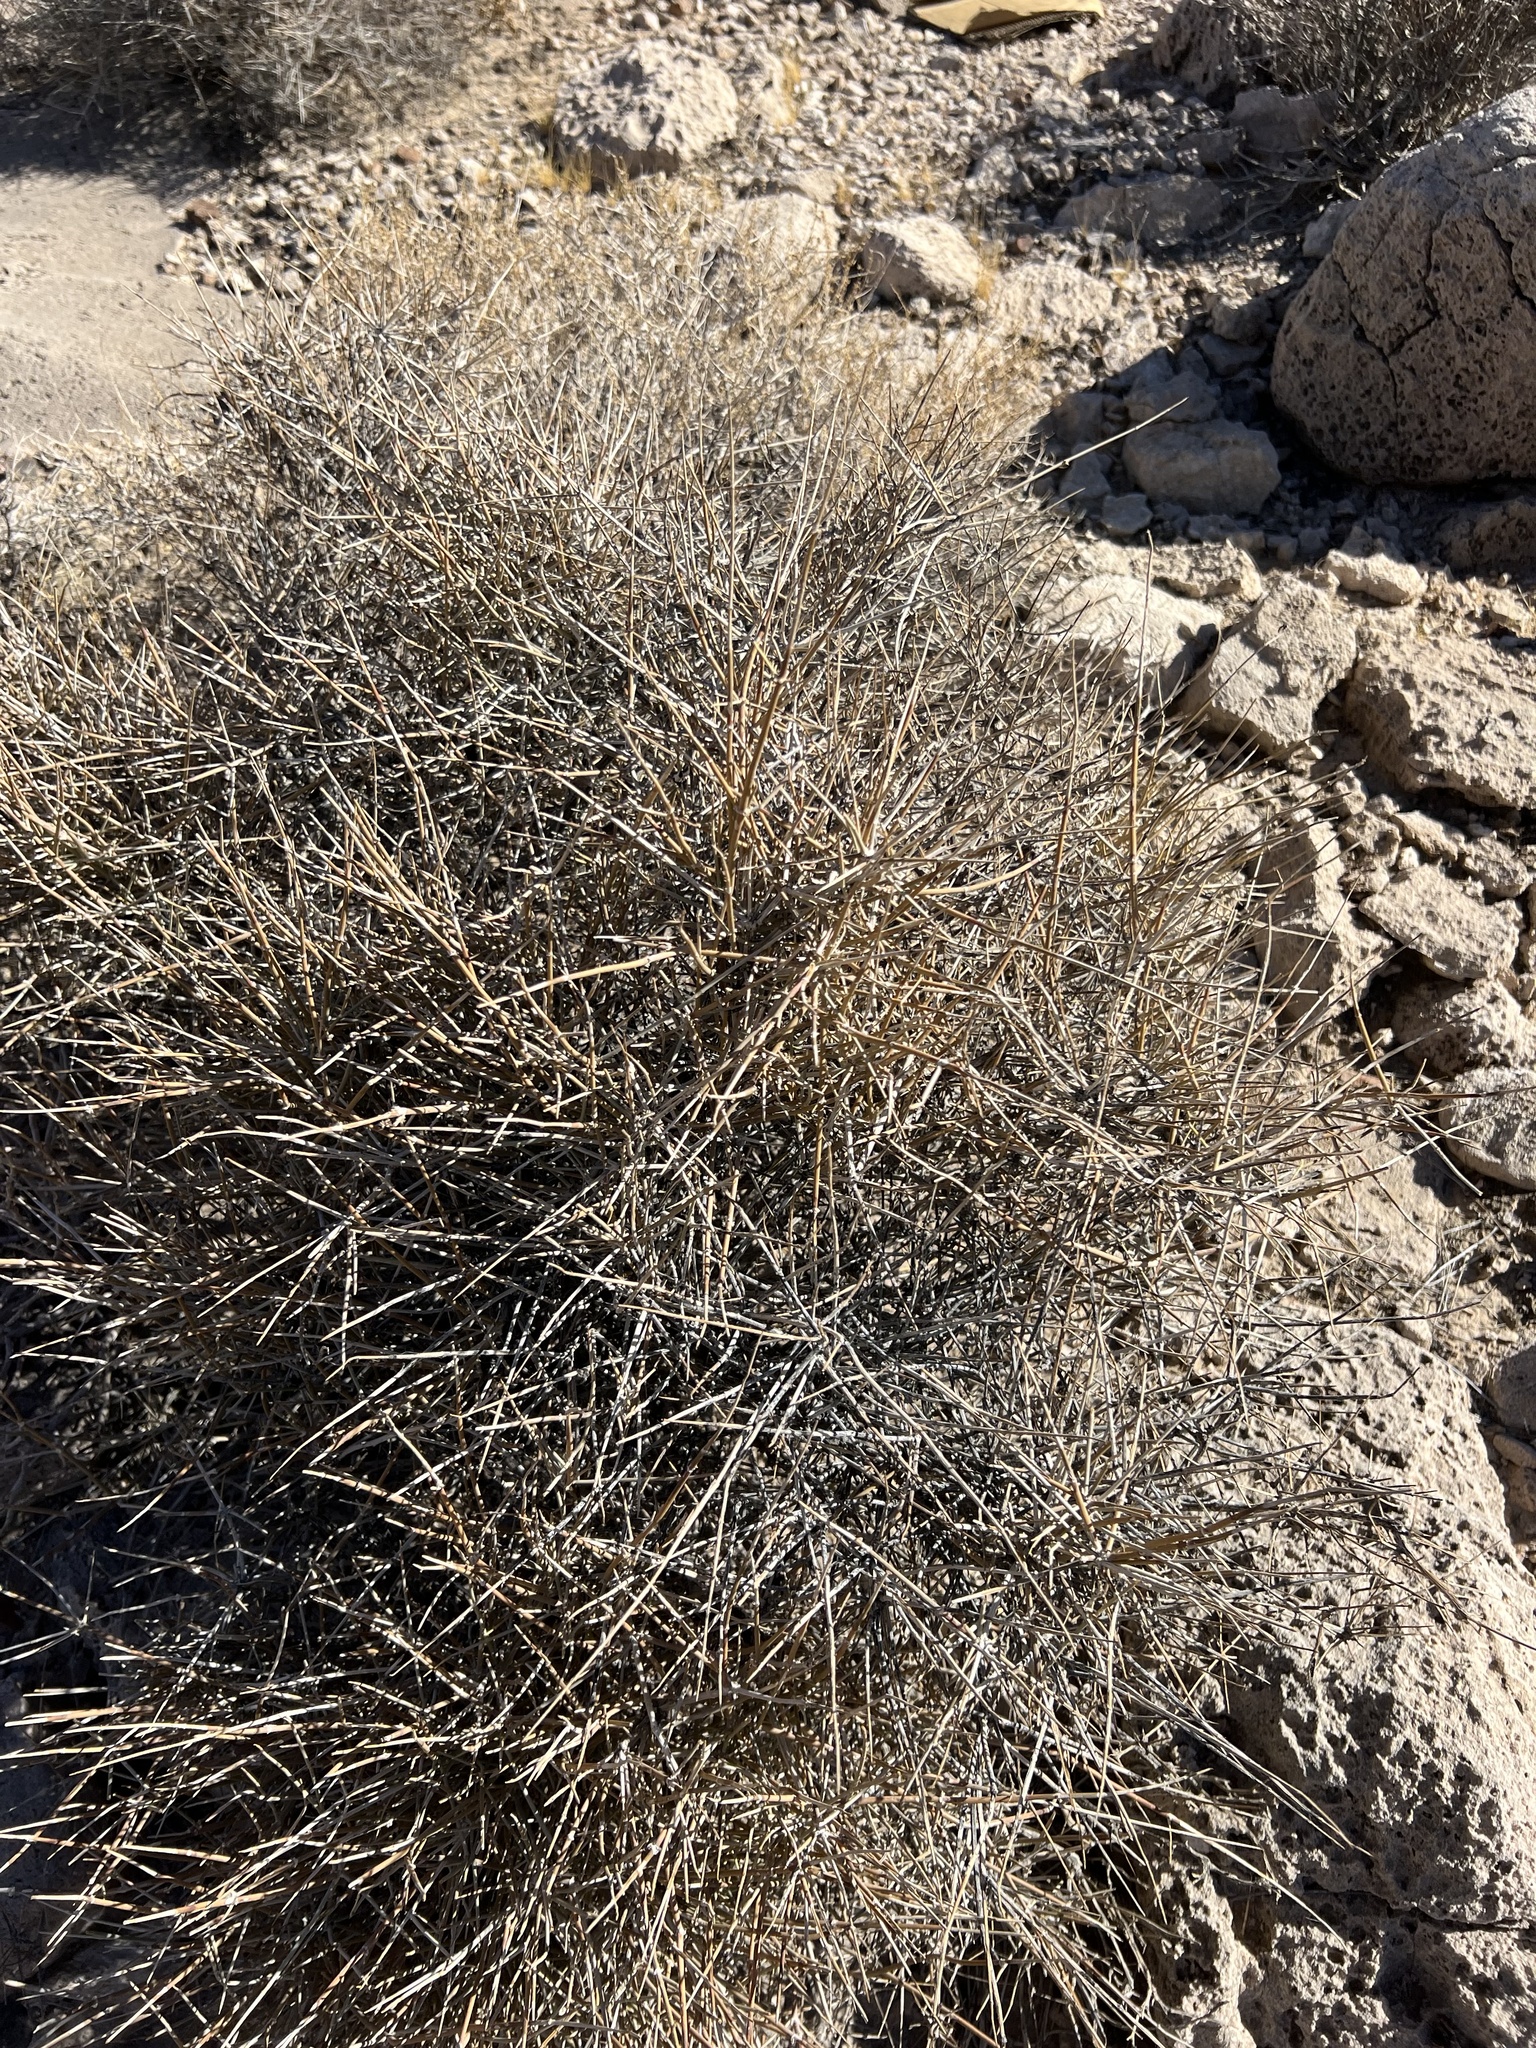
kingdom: Plantae
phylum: Tracheophyta
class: Gnetopsida
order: Ephedrales
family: Ephedraceae
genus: Ephedra
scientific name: Ephedra nevadensis
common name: Gray ephedra
